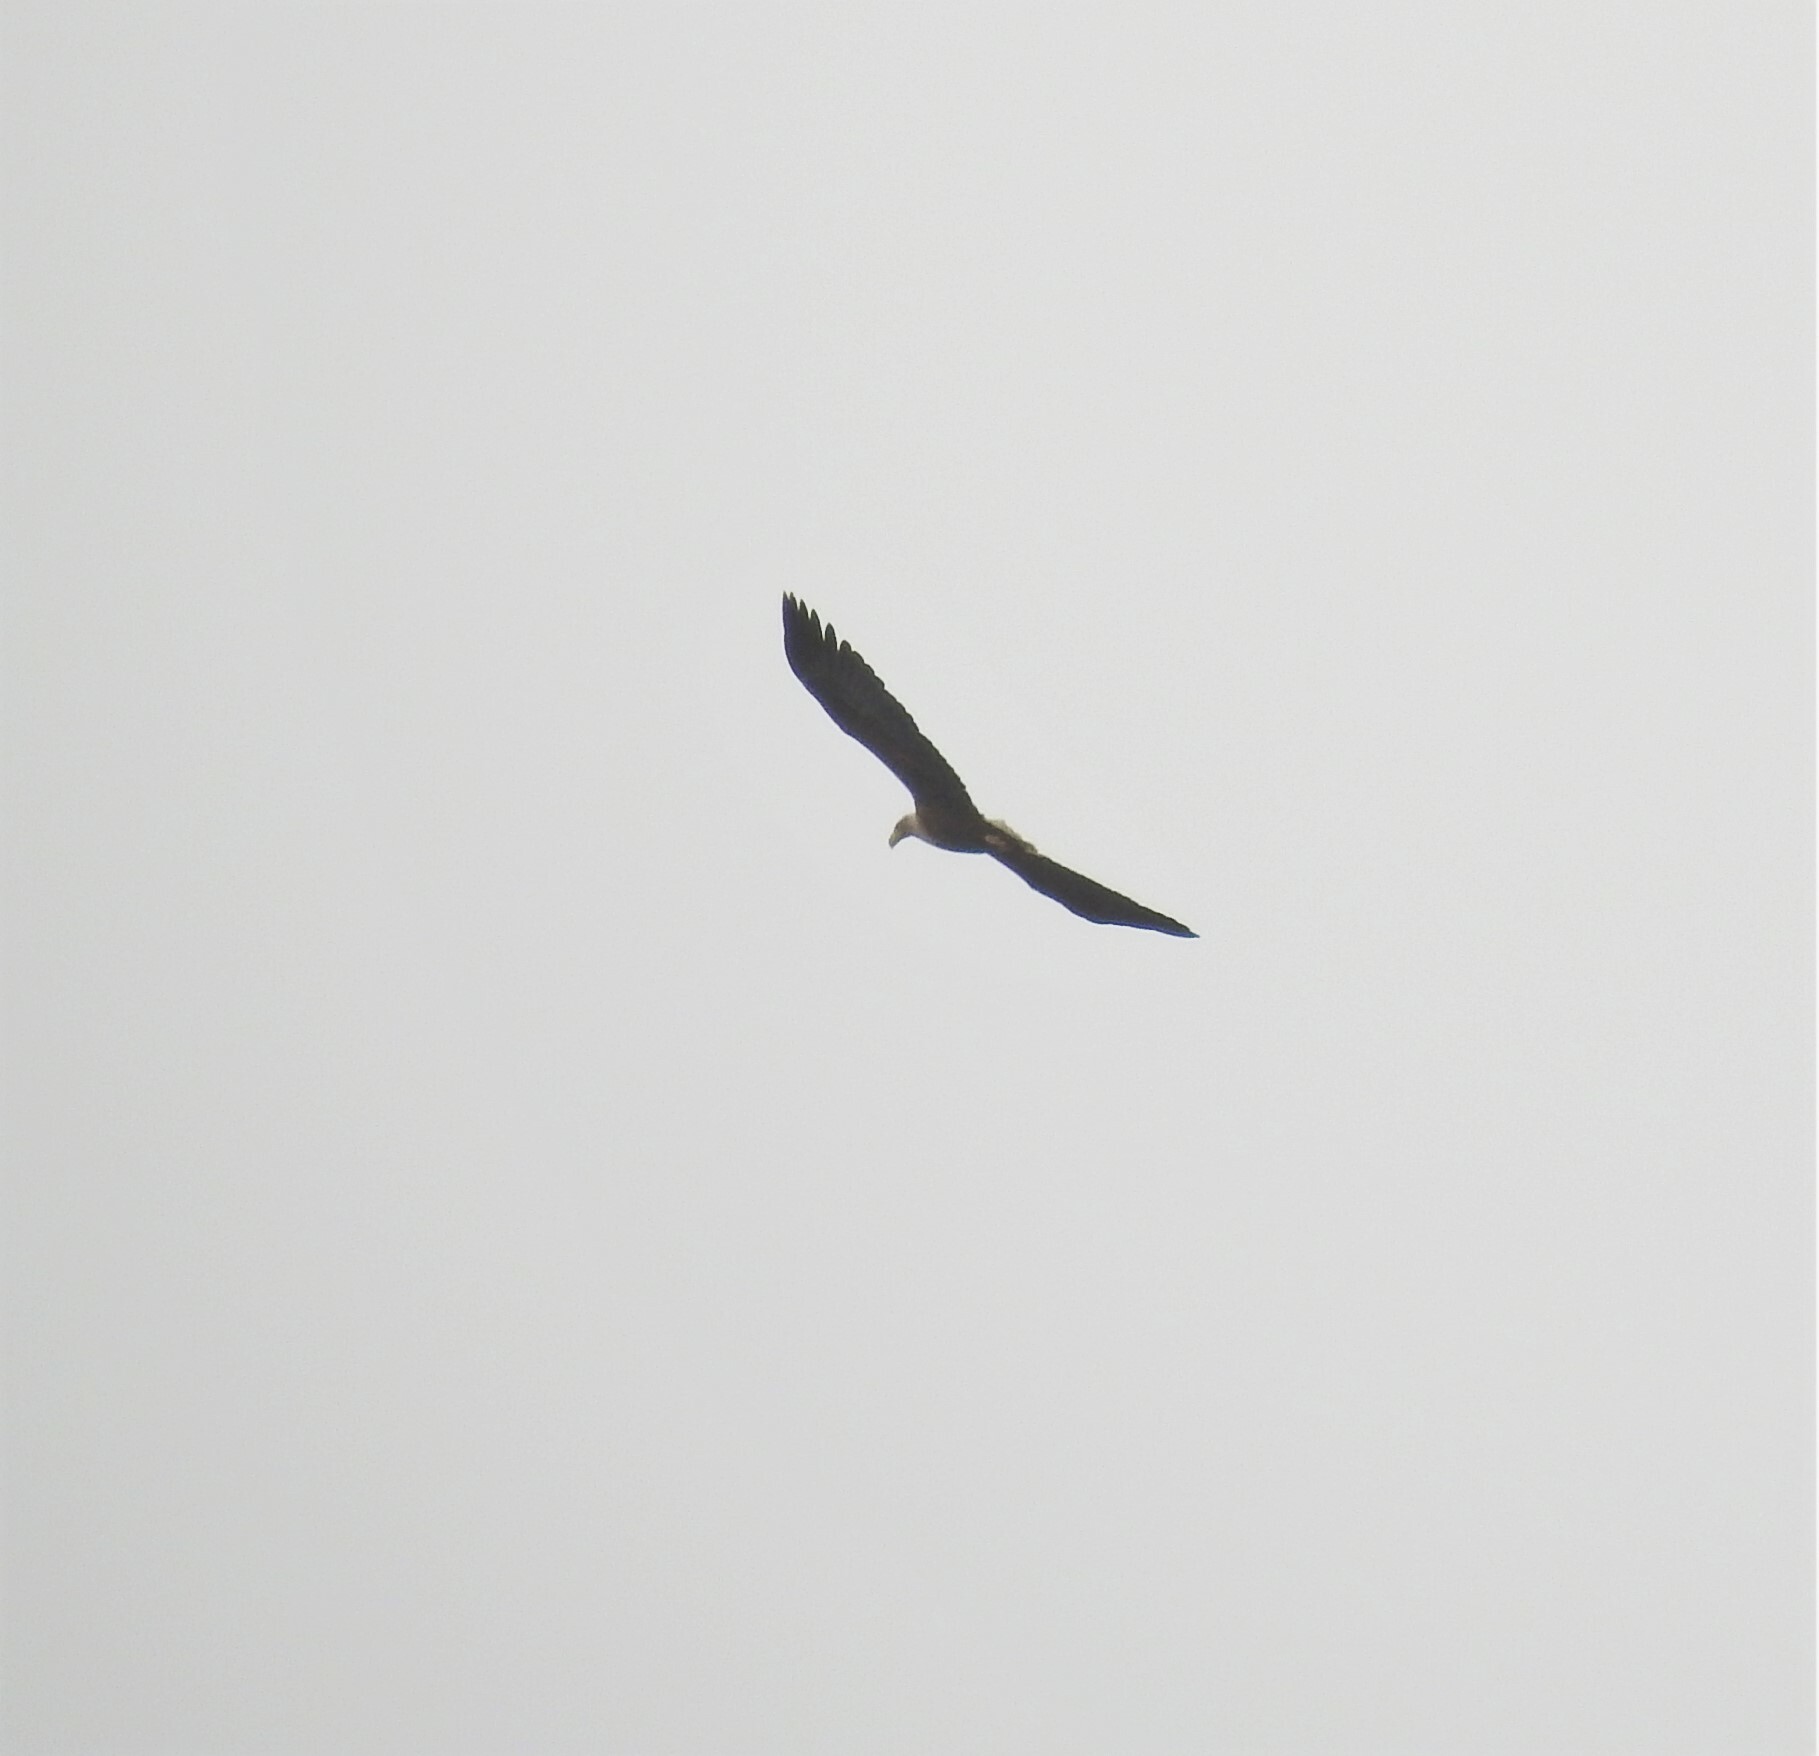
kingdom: Animalia
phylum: Chordata
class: Aves
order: Accipitriformes
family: Accipitridae
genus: Haliaeetus
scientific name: Haliaeetus albicilla
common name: White-tailed eagle
